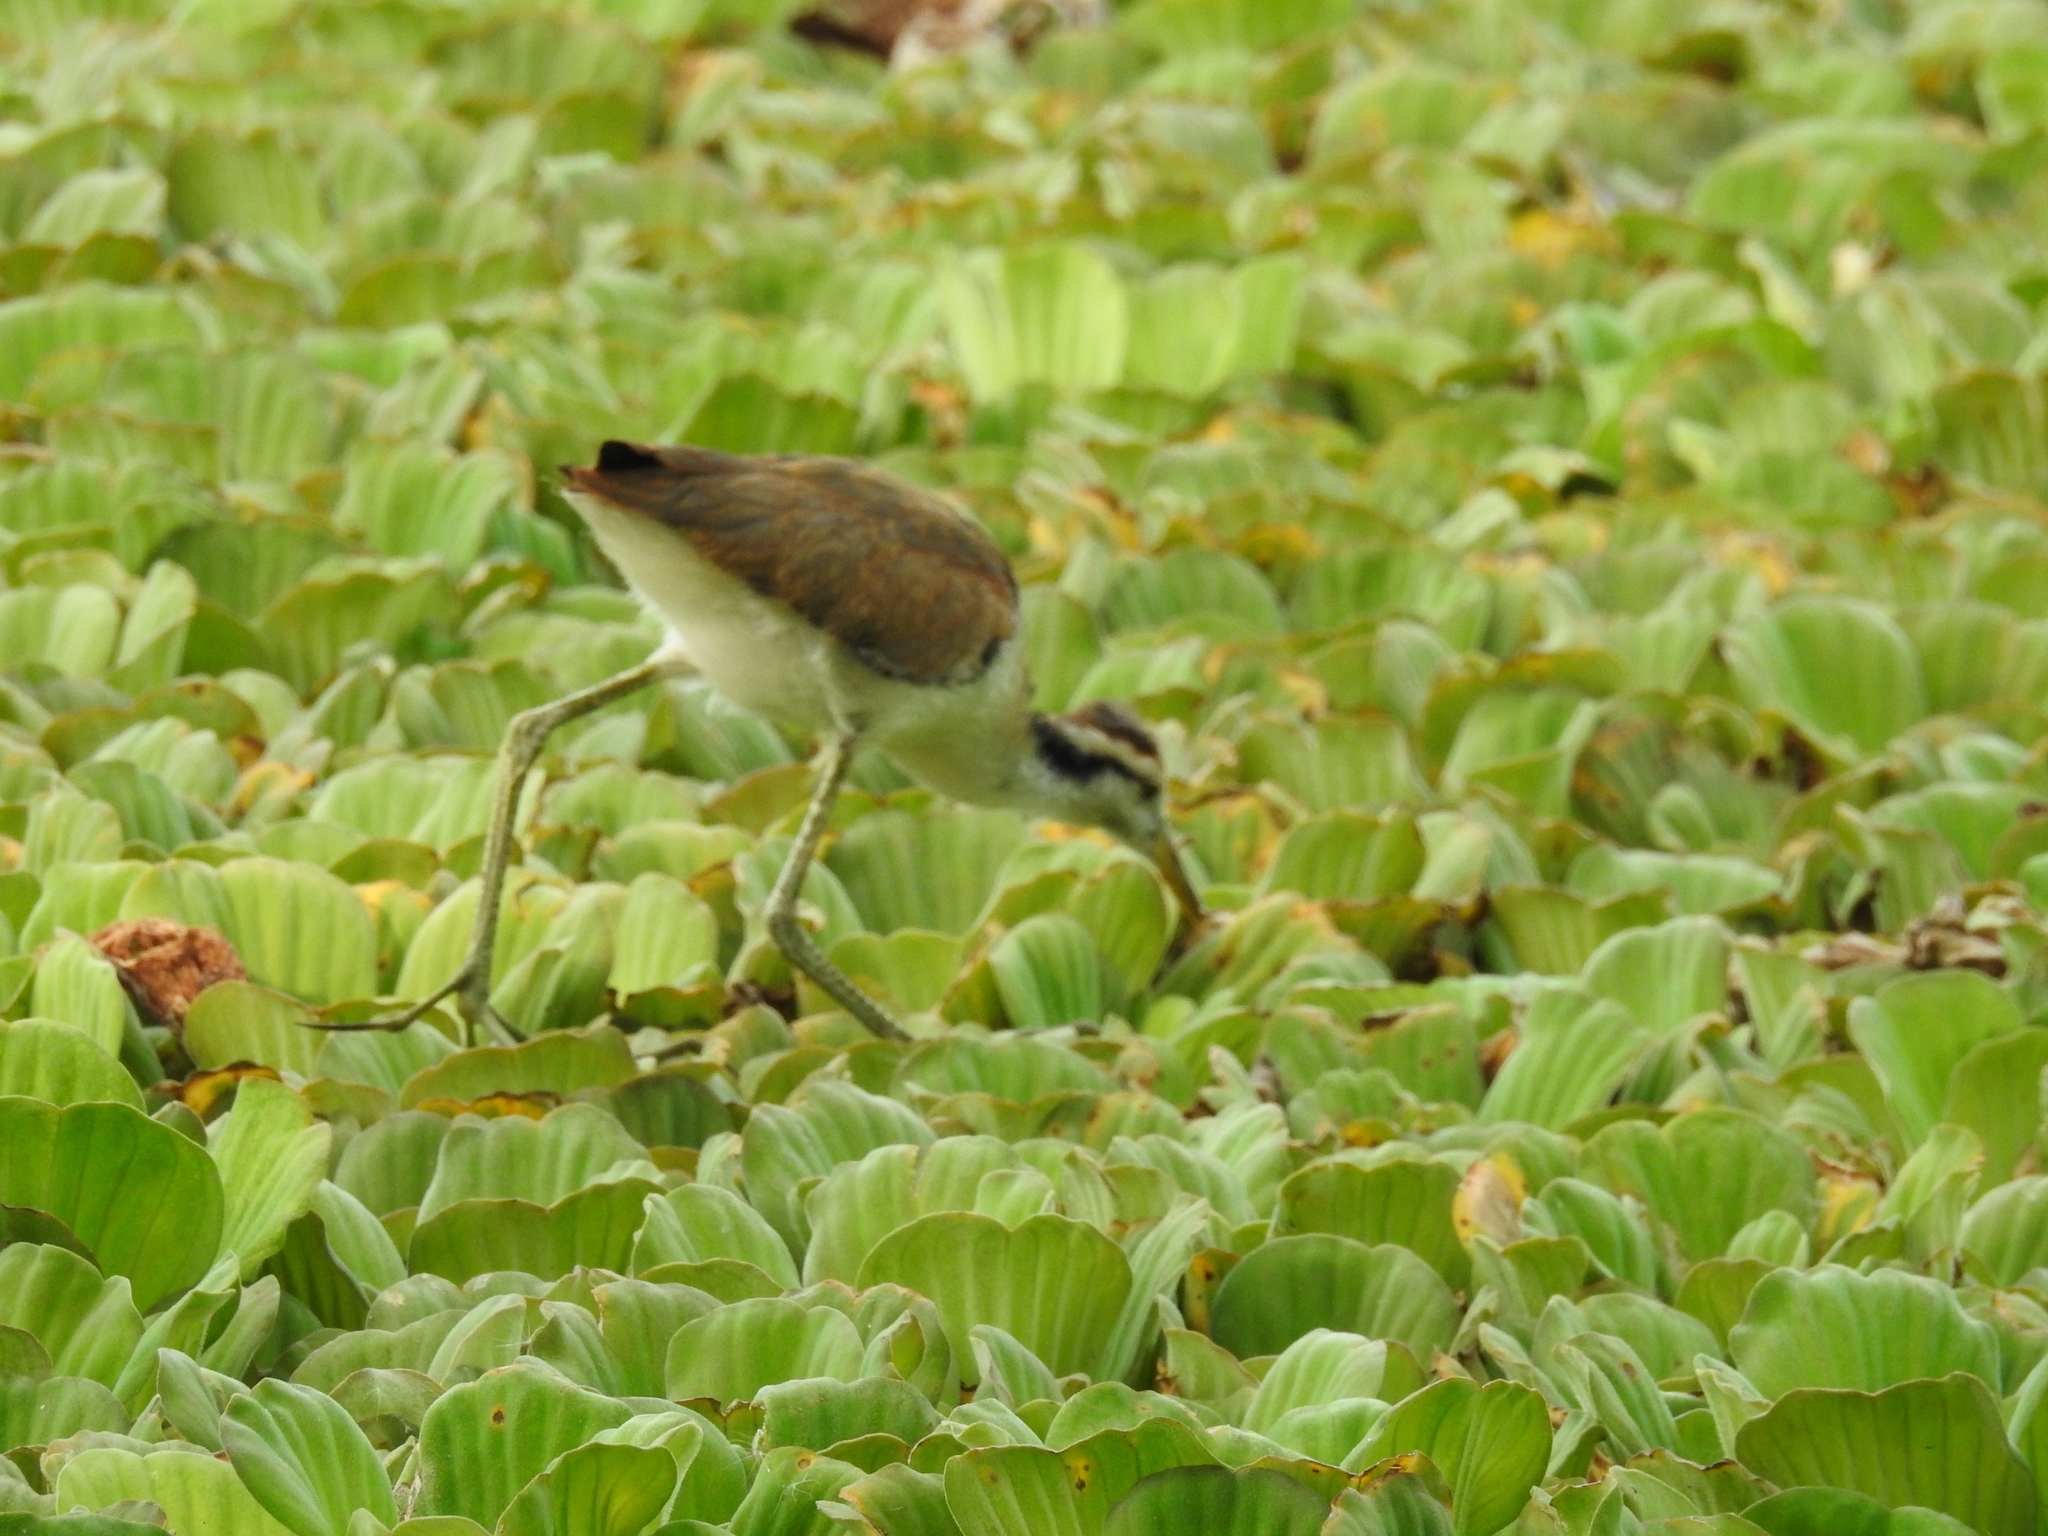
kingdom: Animalia
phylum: Chordata
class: Aves
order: Charadriiformes
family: Jacanidae
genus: Jacana
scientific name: Jacana spinosa
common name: Northern jacana
